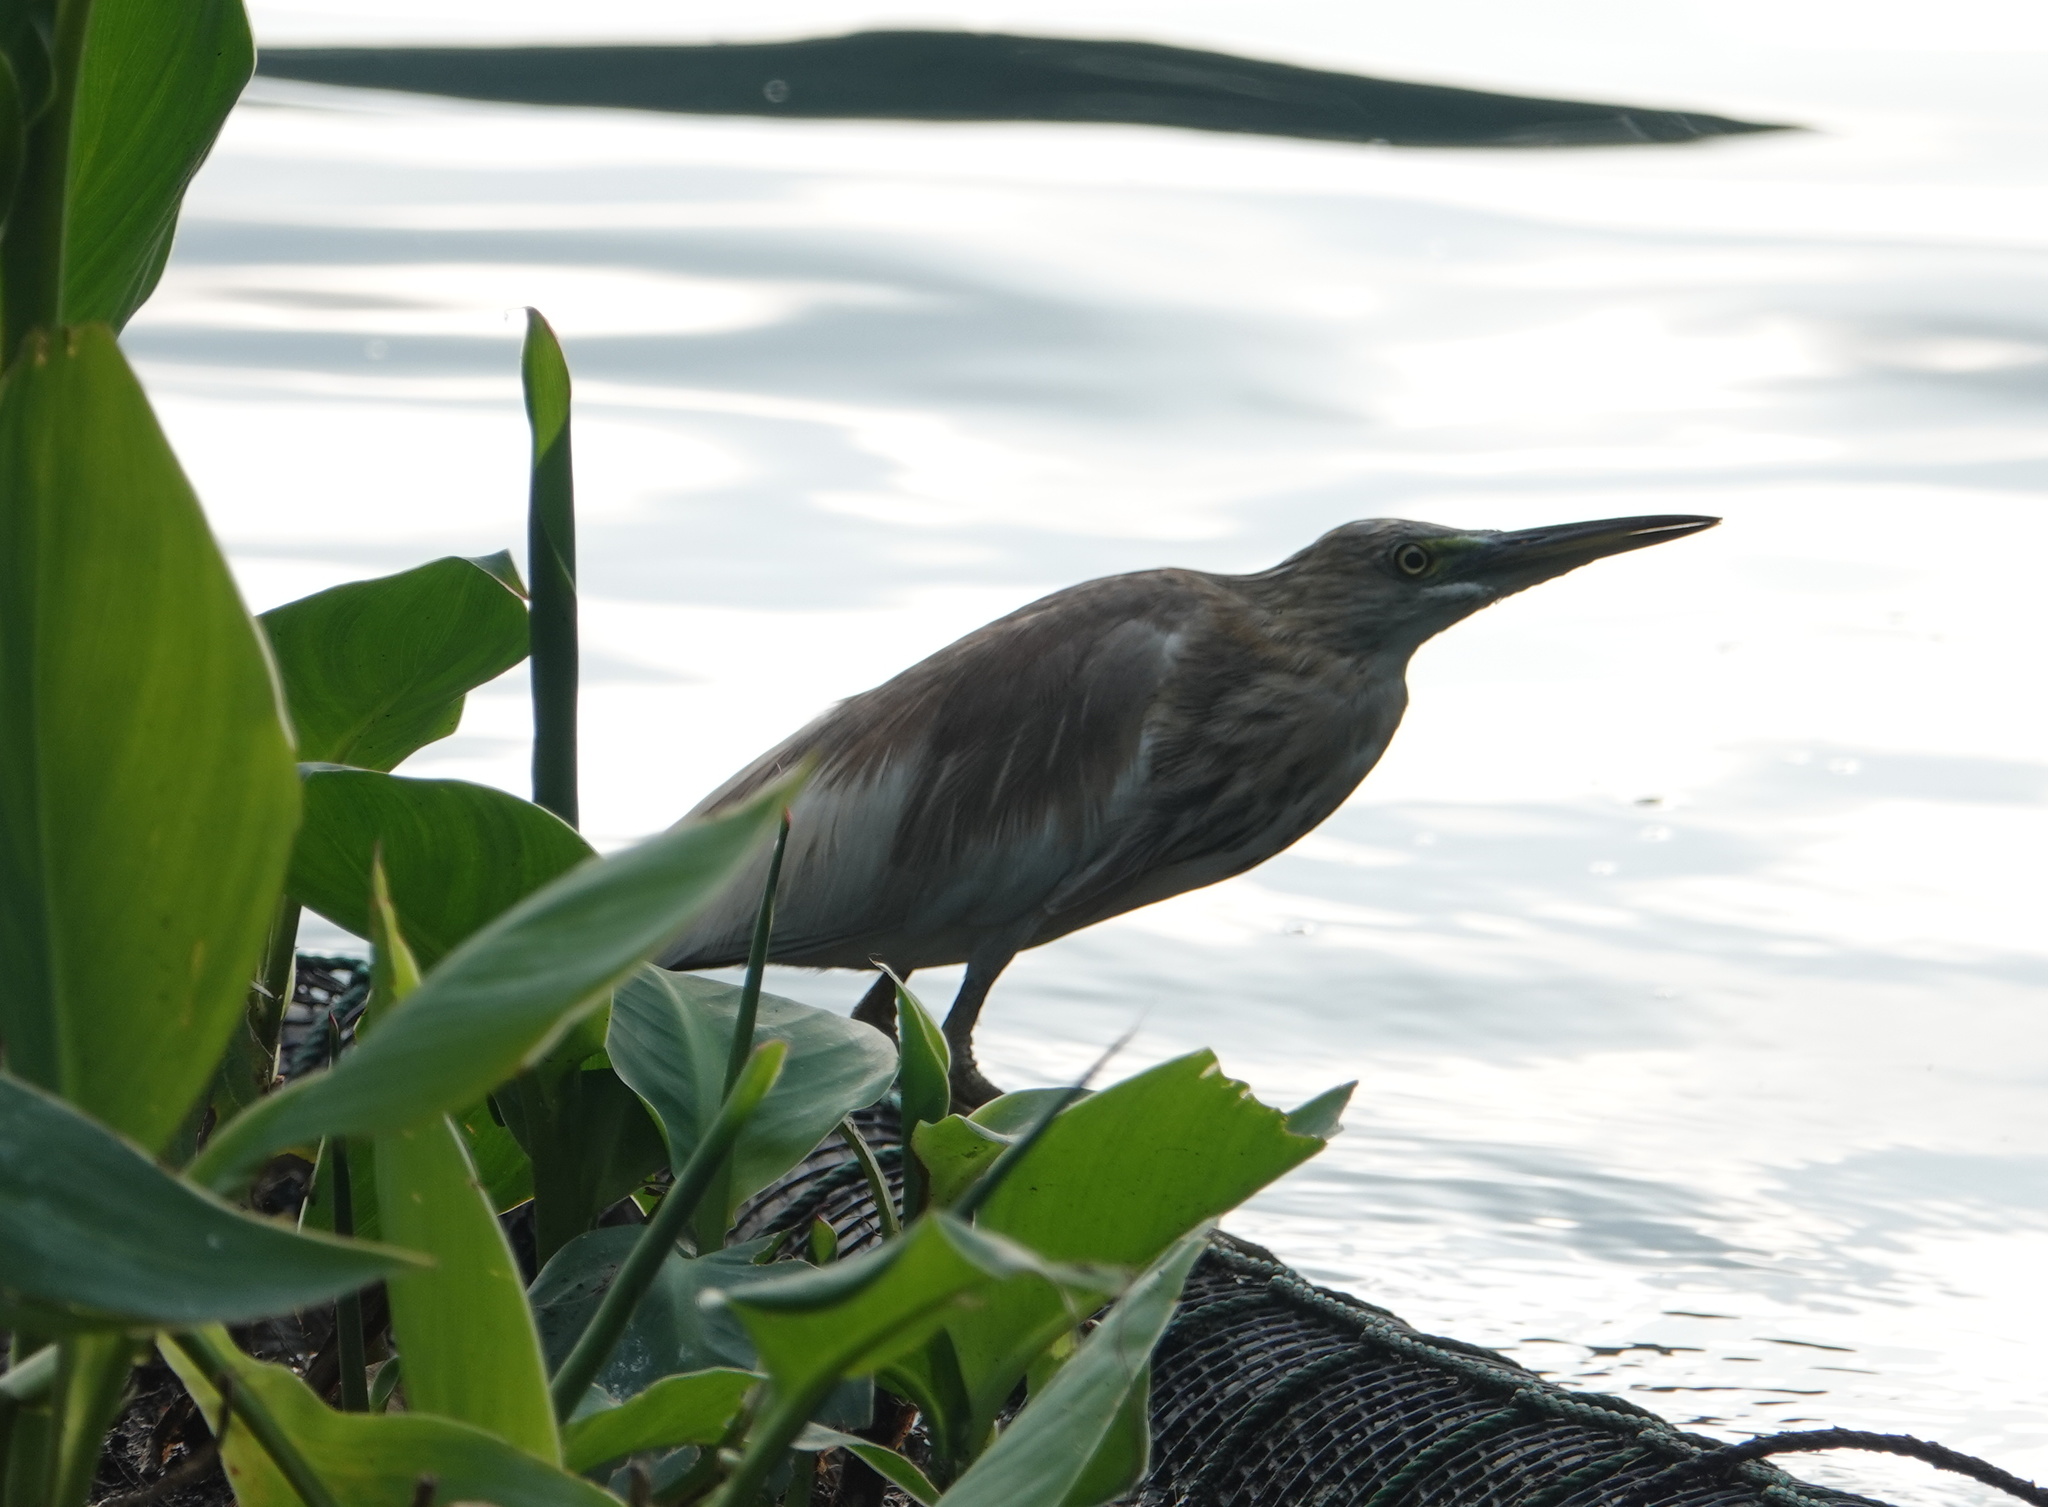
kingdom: Animalia
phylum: Chordata
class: Aves
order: Pelecaniformes
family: Ardeidae
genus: Ardeola
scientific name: Ardeola grayii
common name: Indian pond heron
